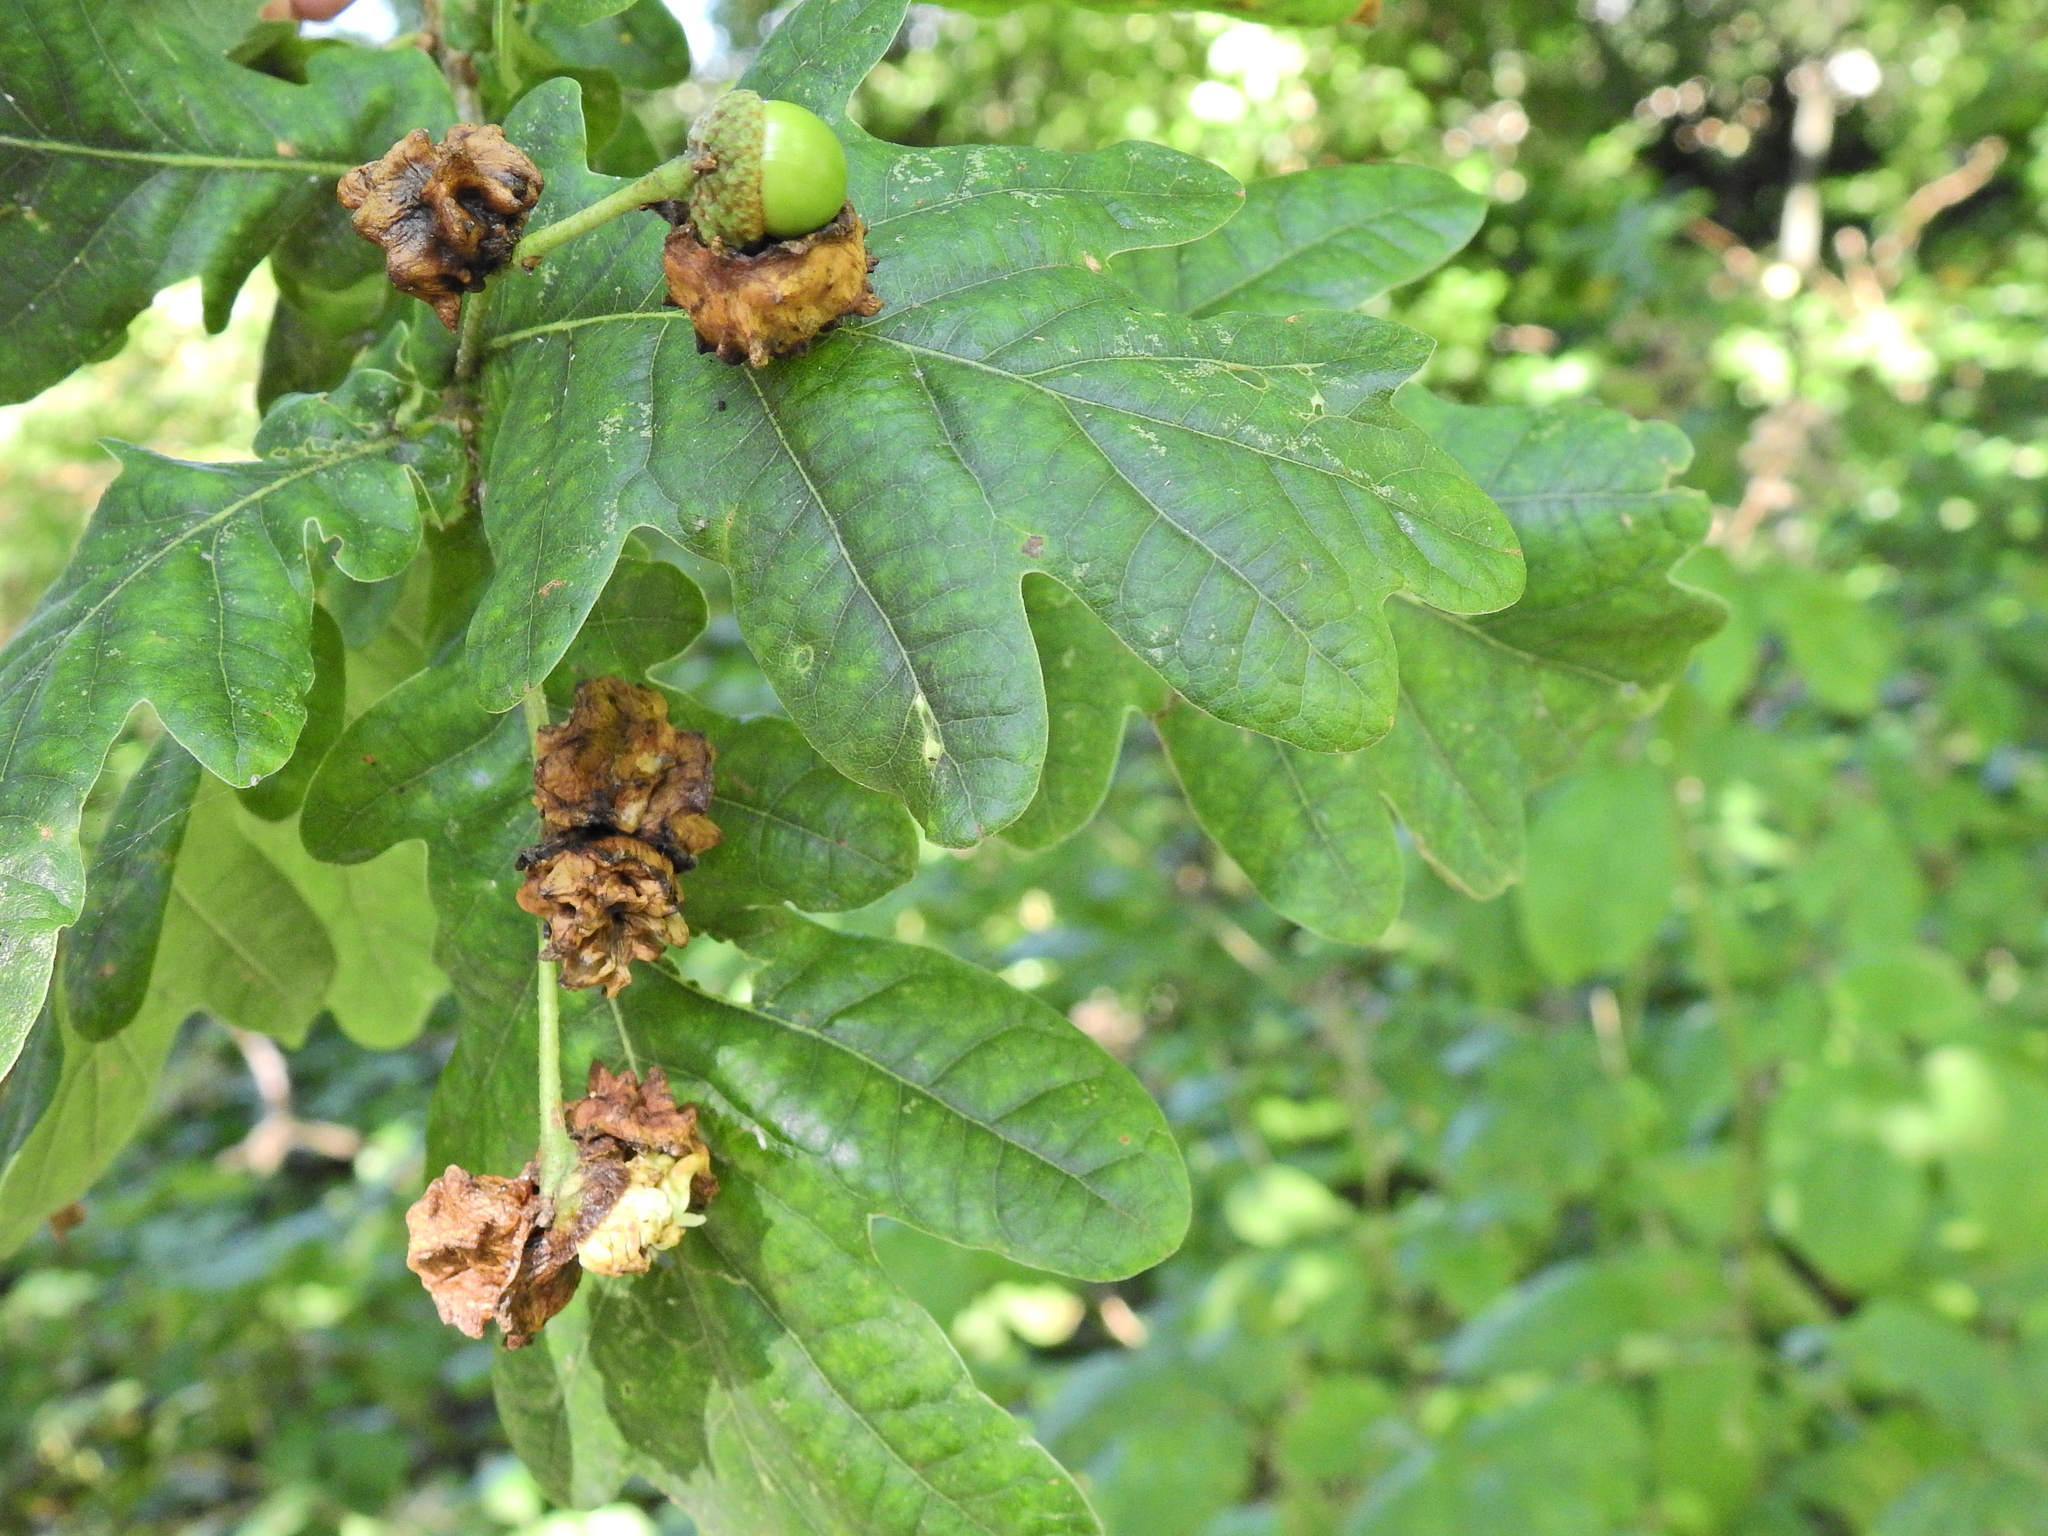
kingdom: Animalia
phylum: Arthropoda
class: Insecta
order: Hymenoptera
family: Cynipidae
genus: Andricus
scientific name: Andricus quercuscalicis
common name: Knopper gall
